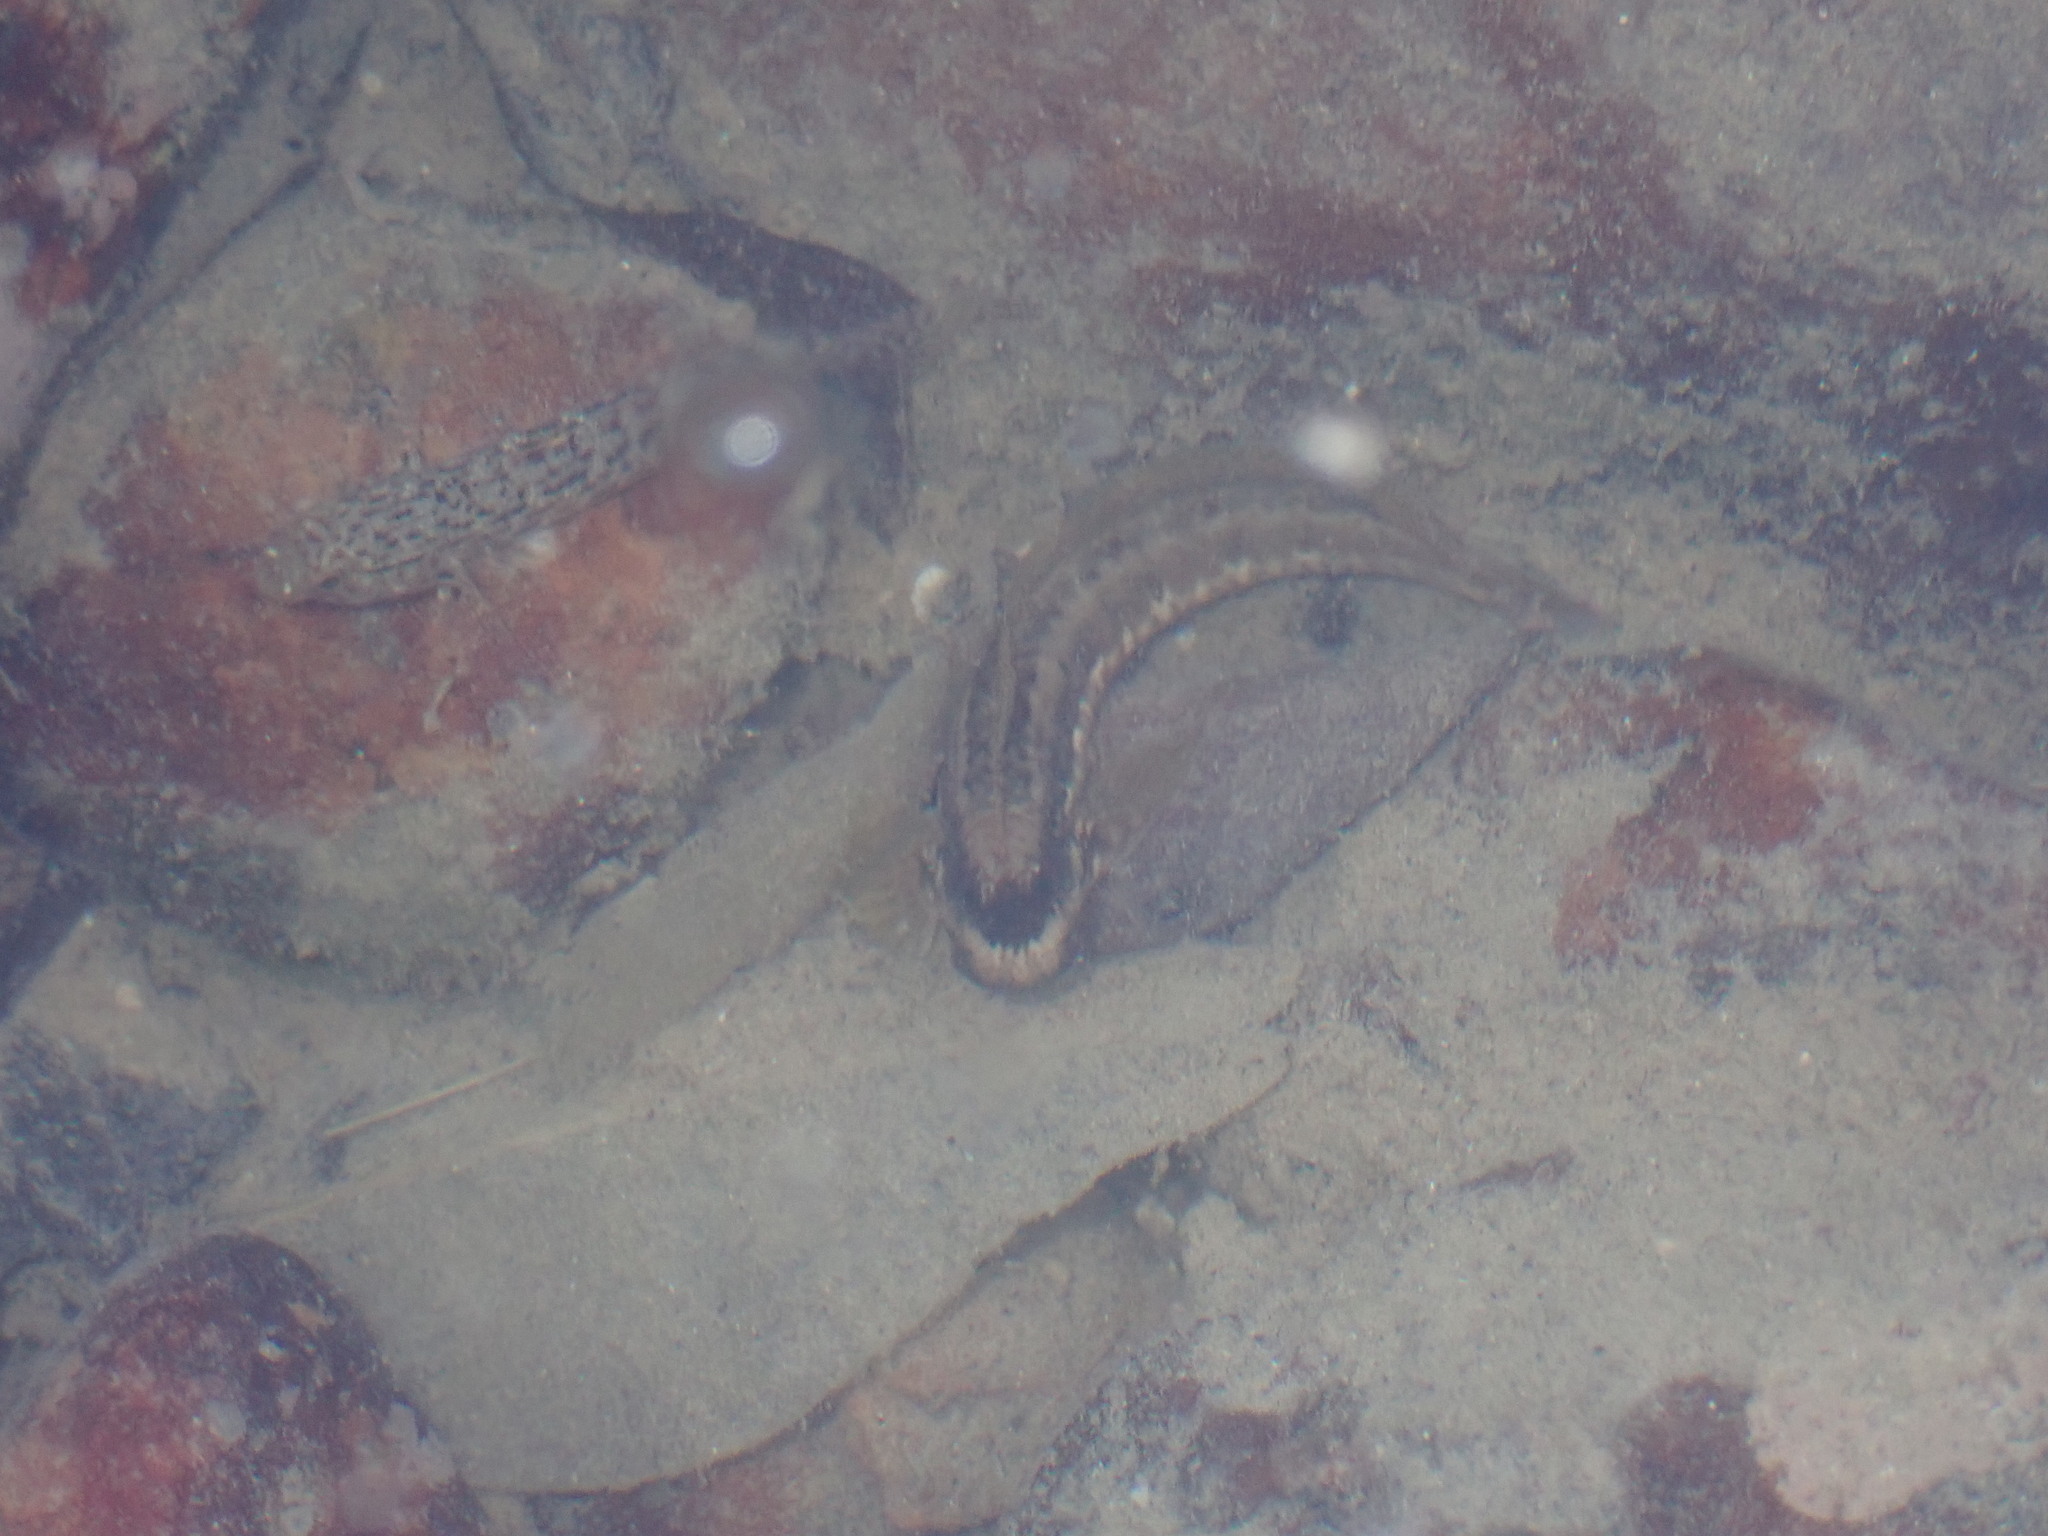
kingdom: Animalia
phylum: Chordata
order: Perciformes
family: Blenniidae
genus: Istiblennius
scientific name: Istiblennius dussumieri
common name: Dussumier's rockskipper
